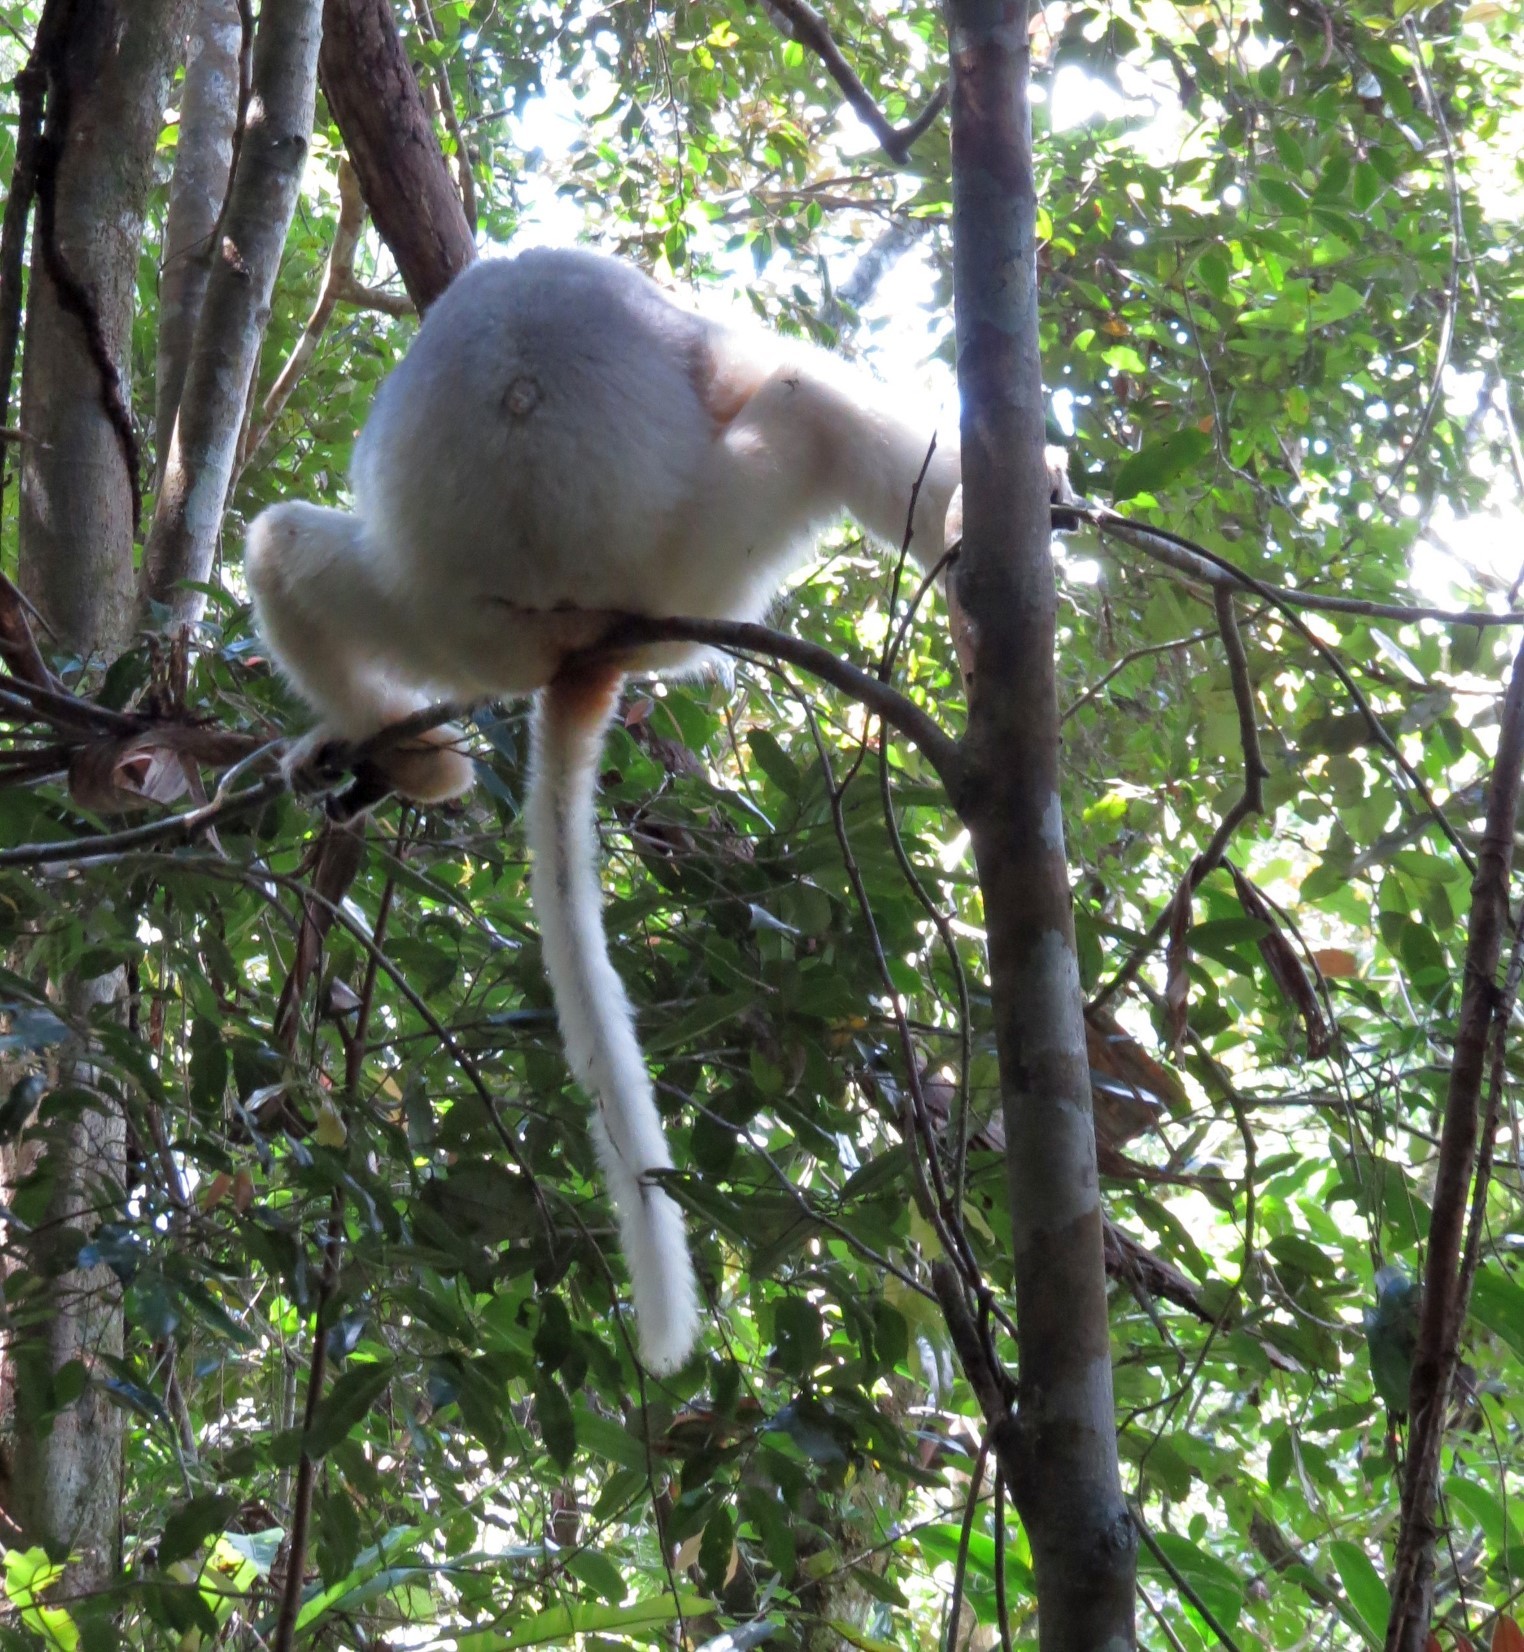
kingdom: Animalia
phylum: Chordata
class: Mammalia
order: Primates
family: Indriidae
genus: Propithecus
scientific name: Propithecus candidus
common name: Silky sifaka
